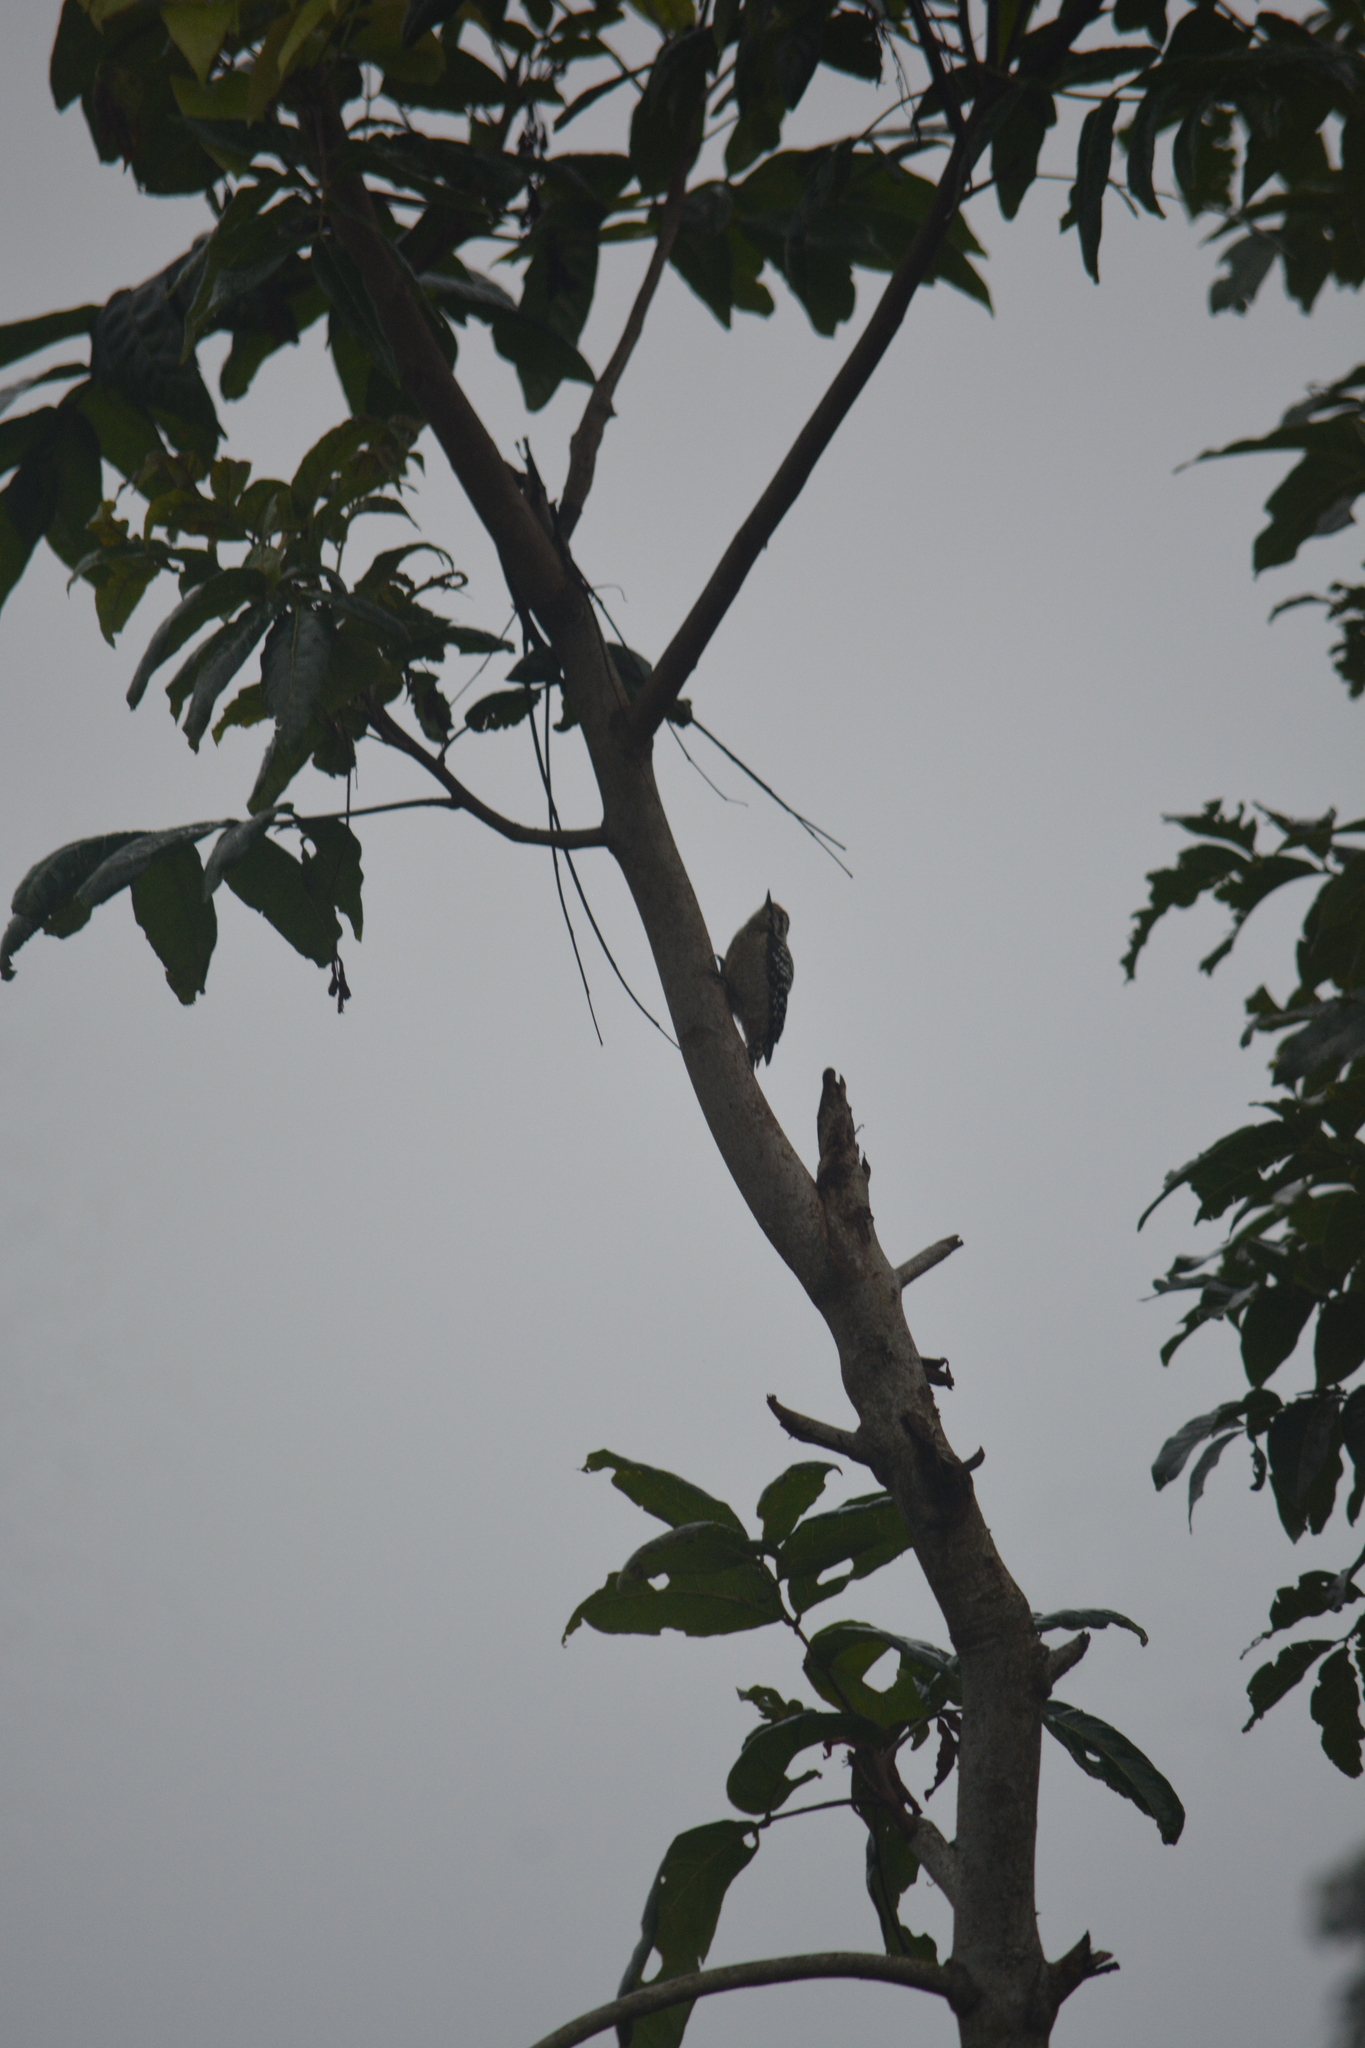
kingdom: Animalia
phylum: Chordata
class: Aves
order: Piciformes
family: Picidae
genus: Dendrocopos
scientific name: Dendrocopos analis
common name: Freckle-breasted woodpecker
